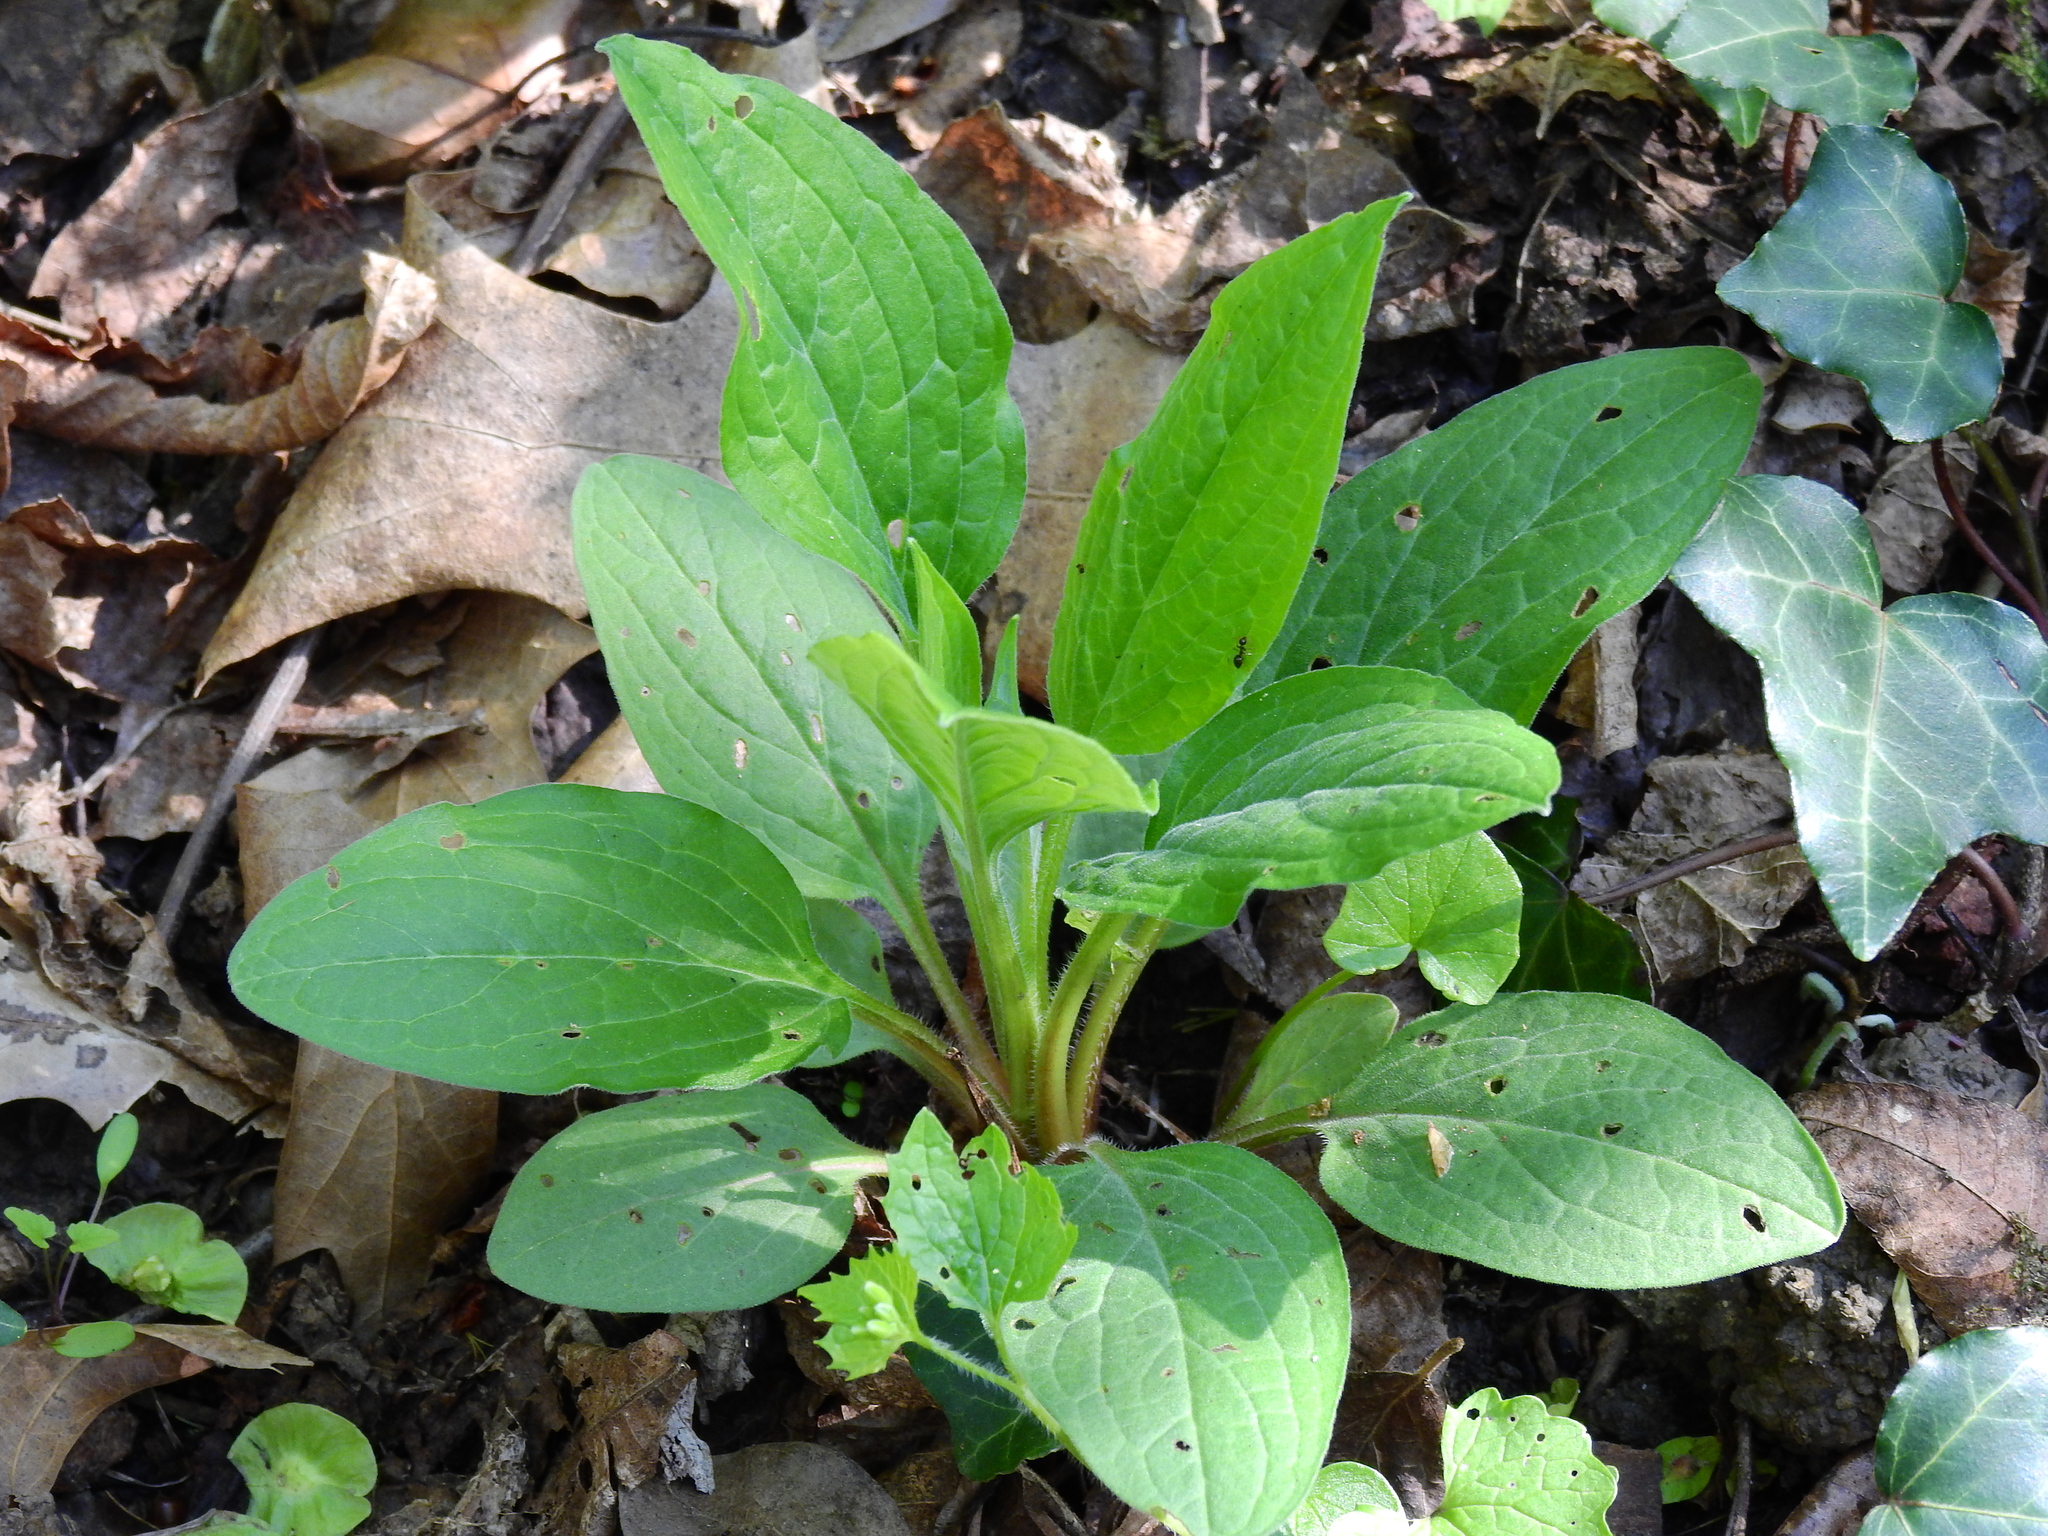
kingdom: Plantae
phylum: Tracheophyta
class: Magnoliopsida
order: Boraginales
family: Boraginaceae
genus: Hackelia
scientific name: Hackelia virginiana
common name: Beggar's-lice
